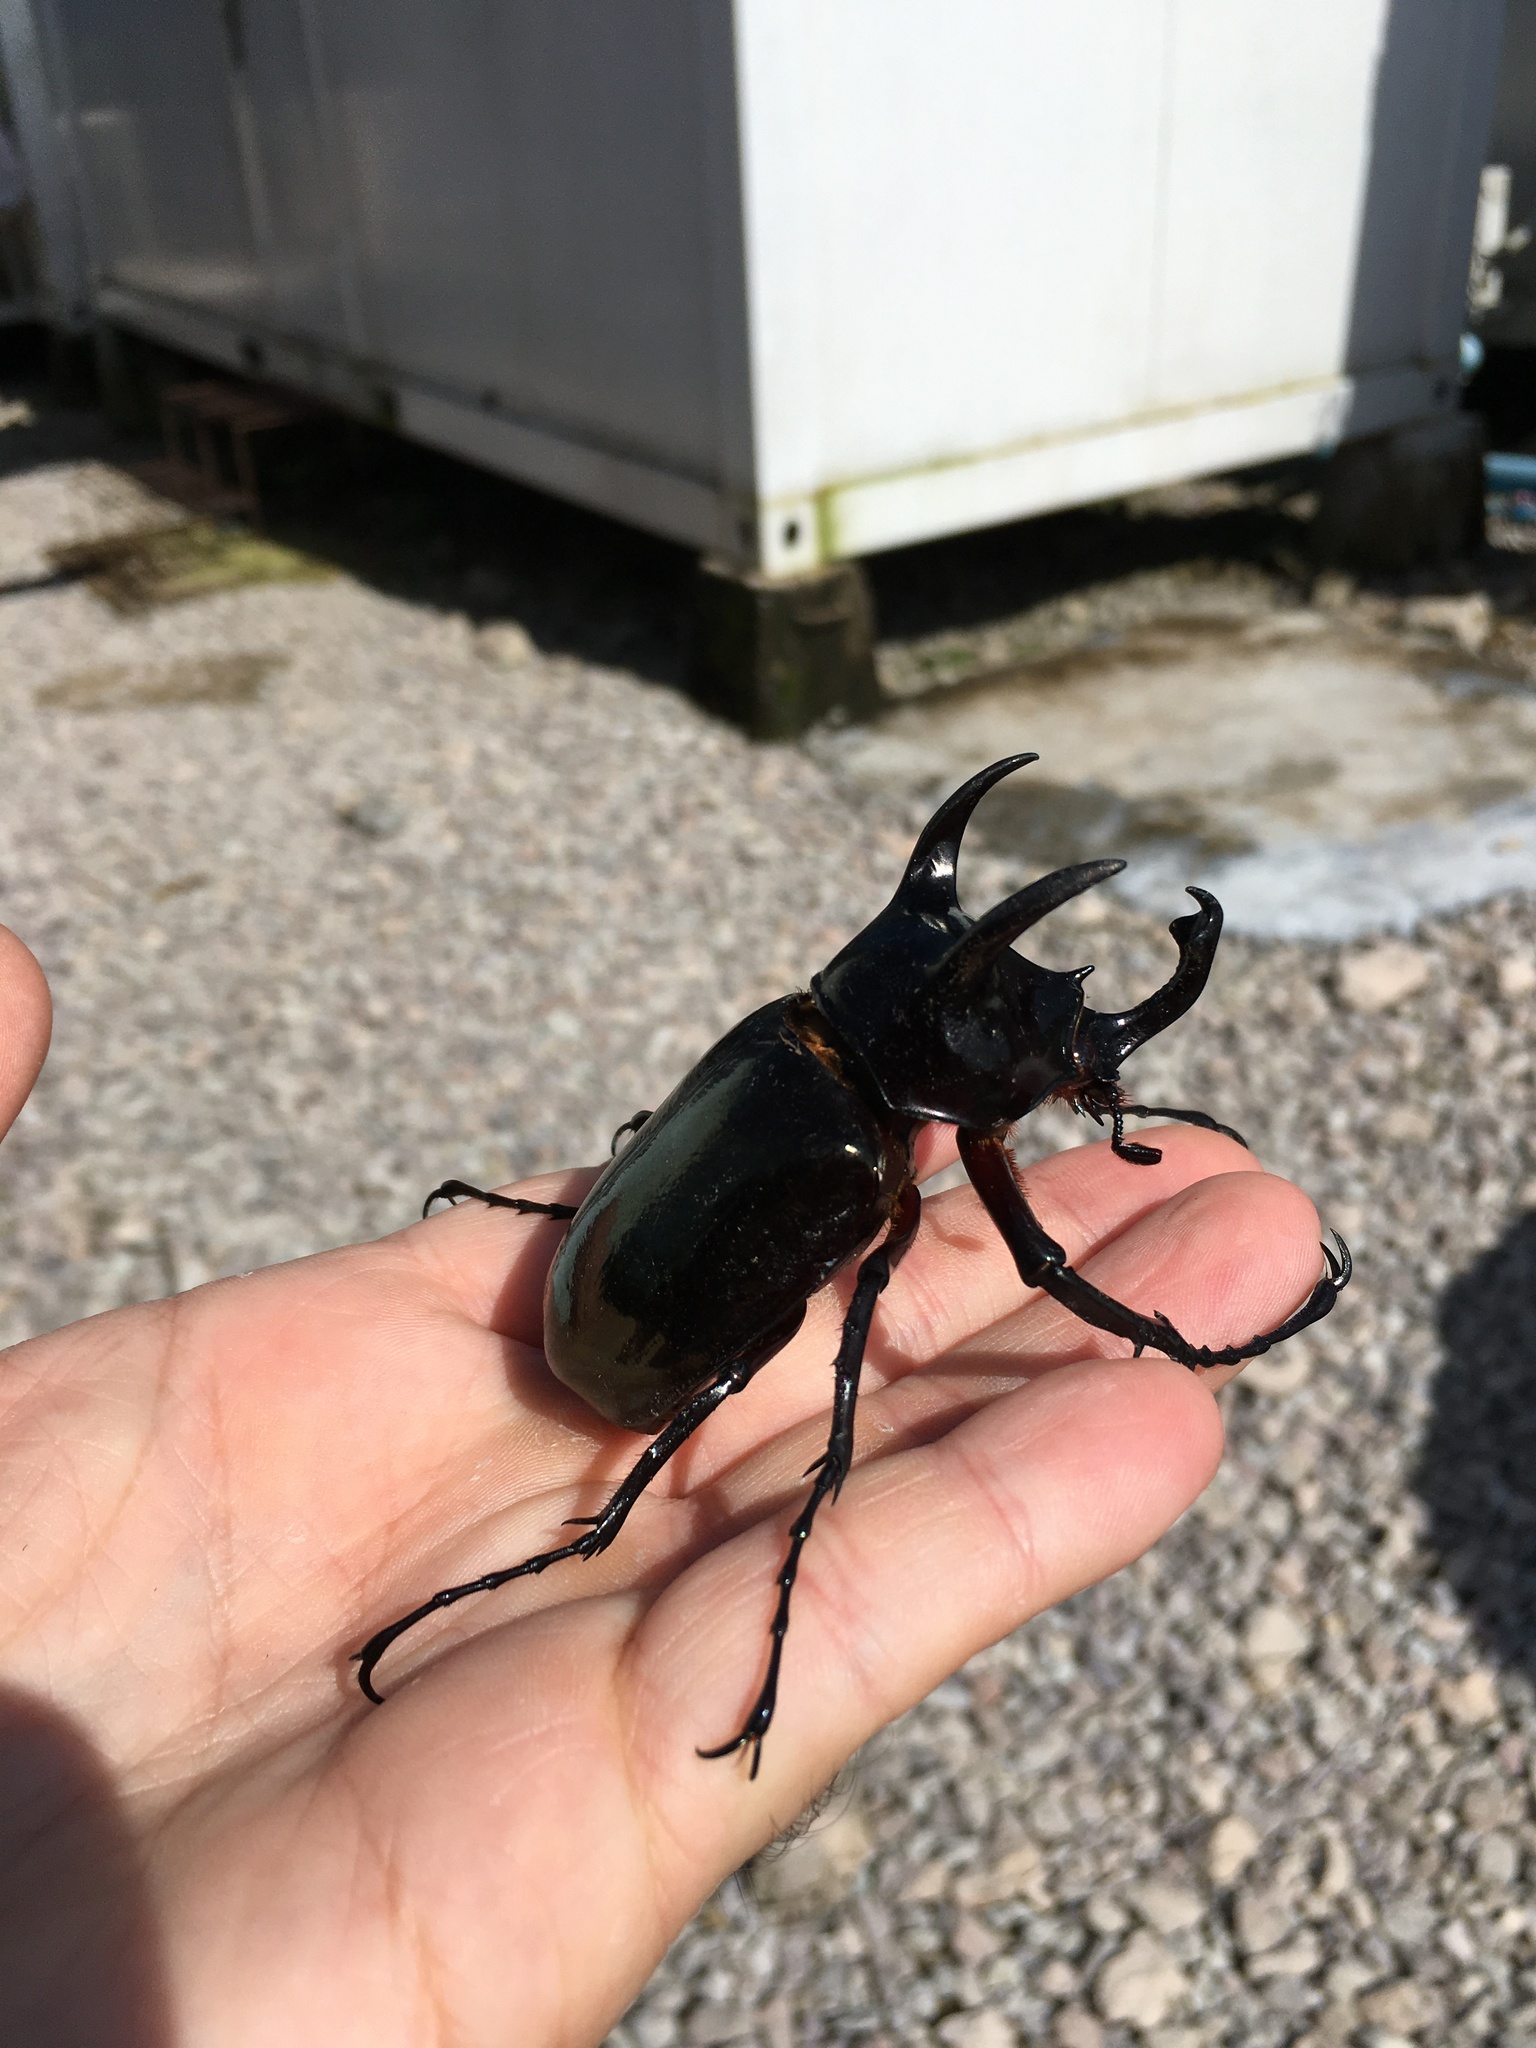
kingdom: Animalia
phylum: Arthropoda
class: Insecta
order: Coleoptera
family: Scarabaeidae
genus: Chalcosoma
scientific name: Chalcosoma atlas
